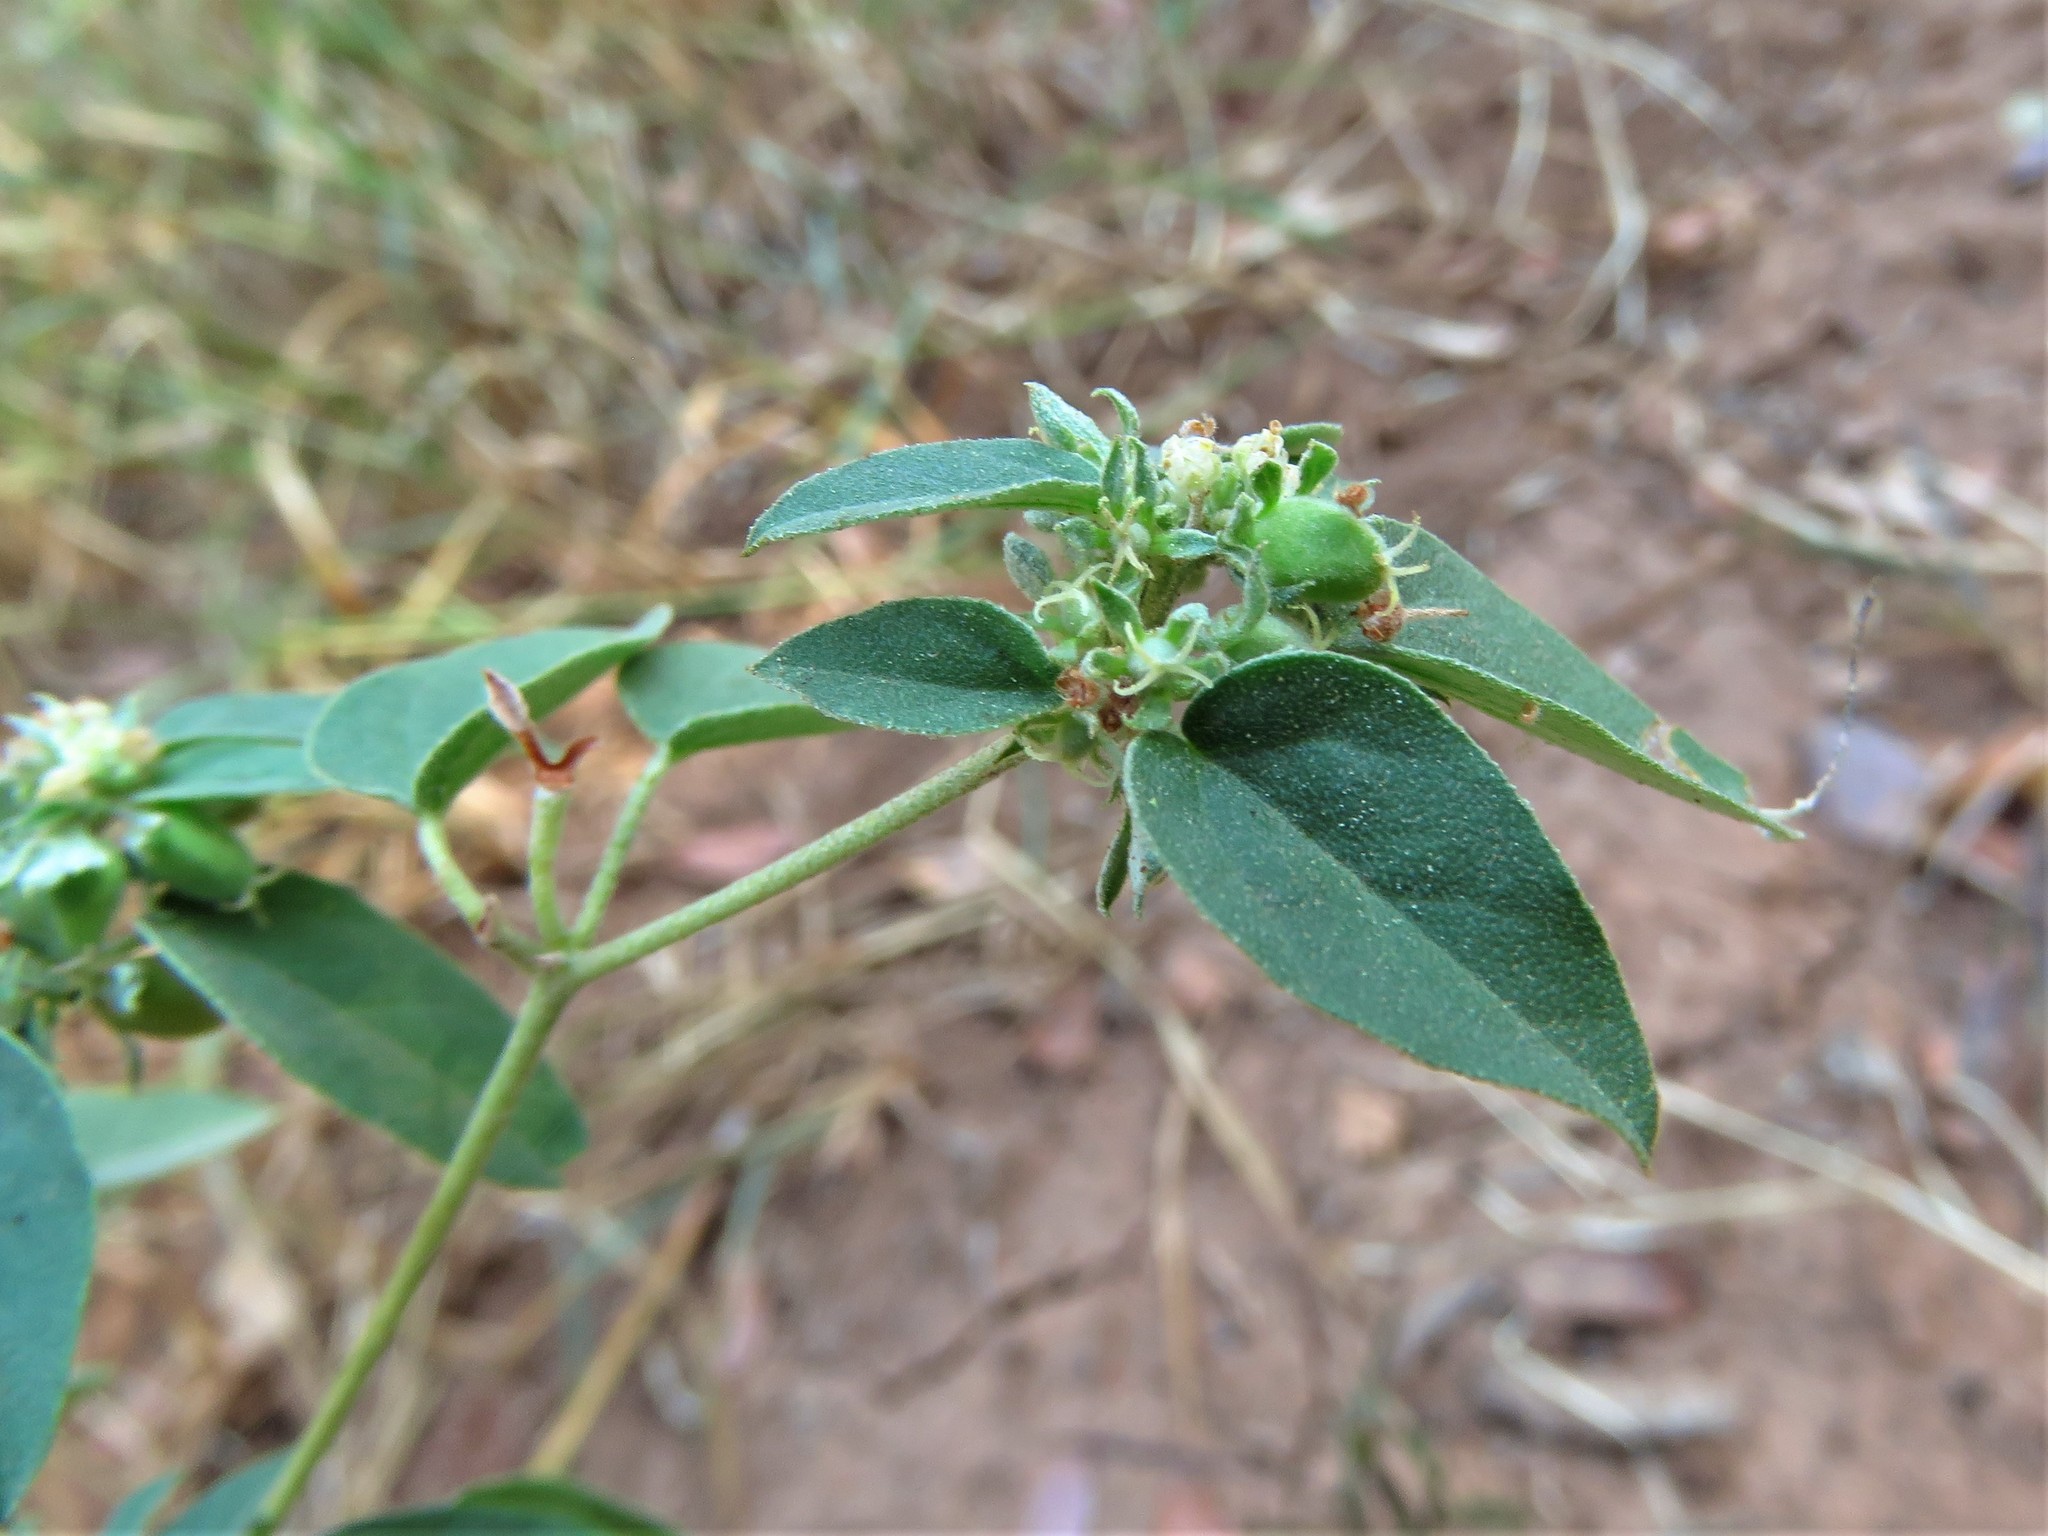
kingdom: Plantae
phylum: Tracheophyta
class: Magnoliopsida
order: Malpighiales
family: Euphorbiaceae
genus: Croton
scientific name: Croton monanthogynus
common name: One-seed croton
